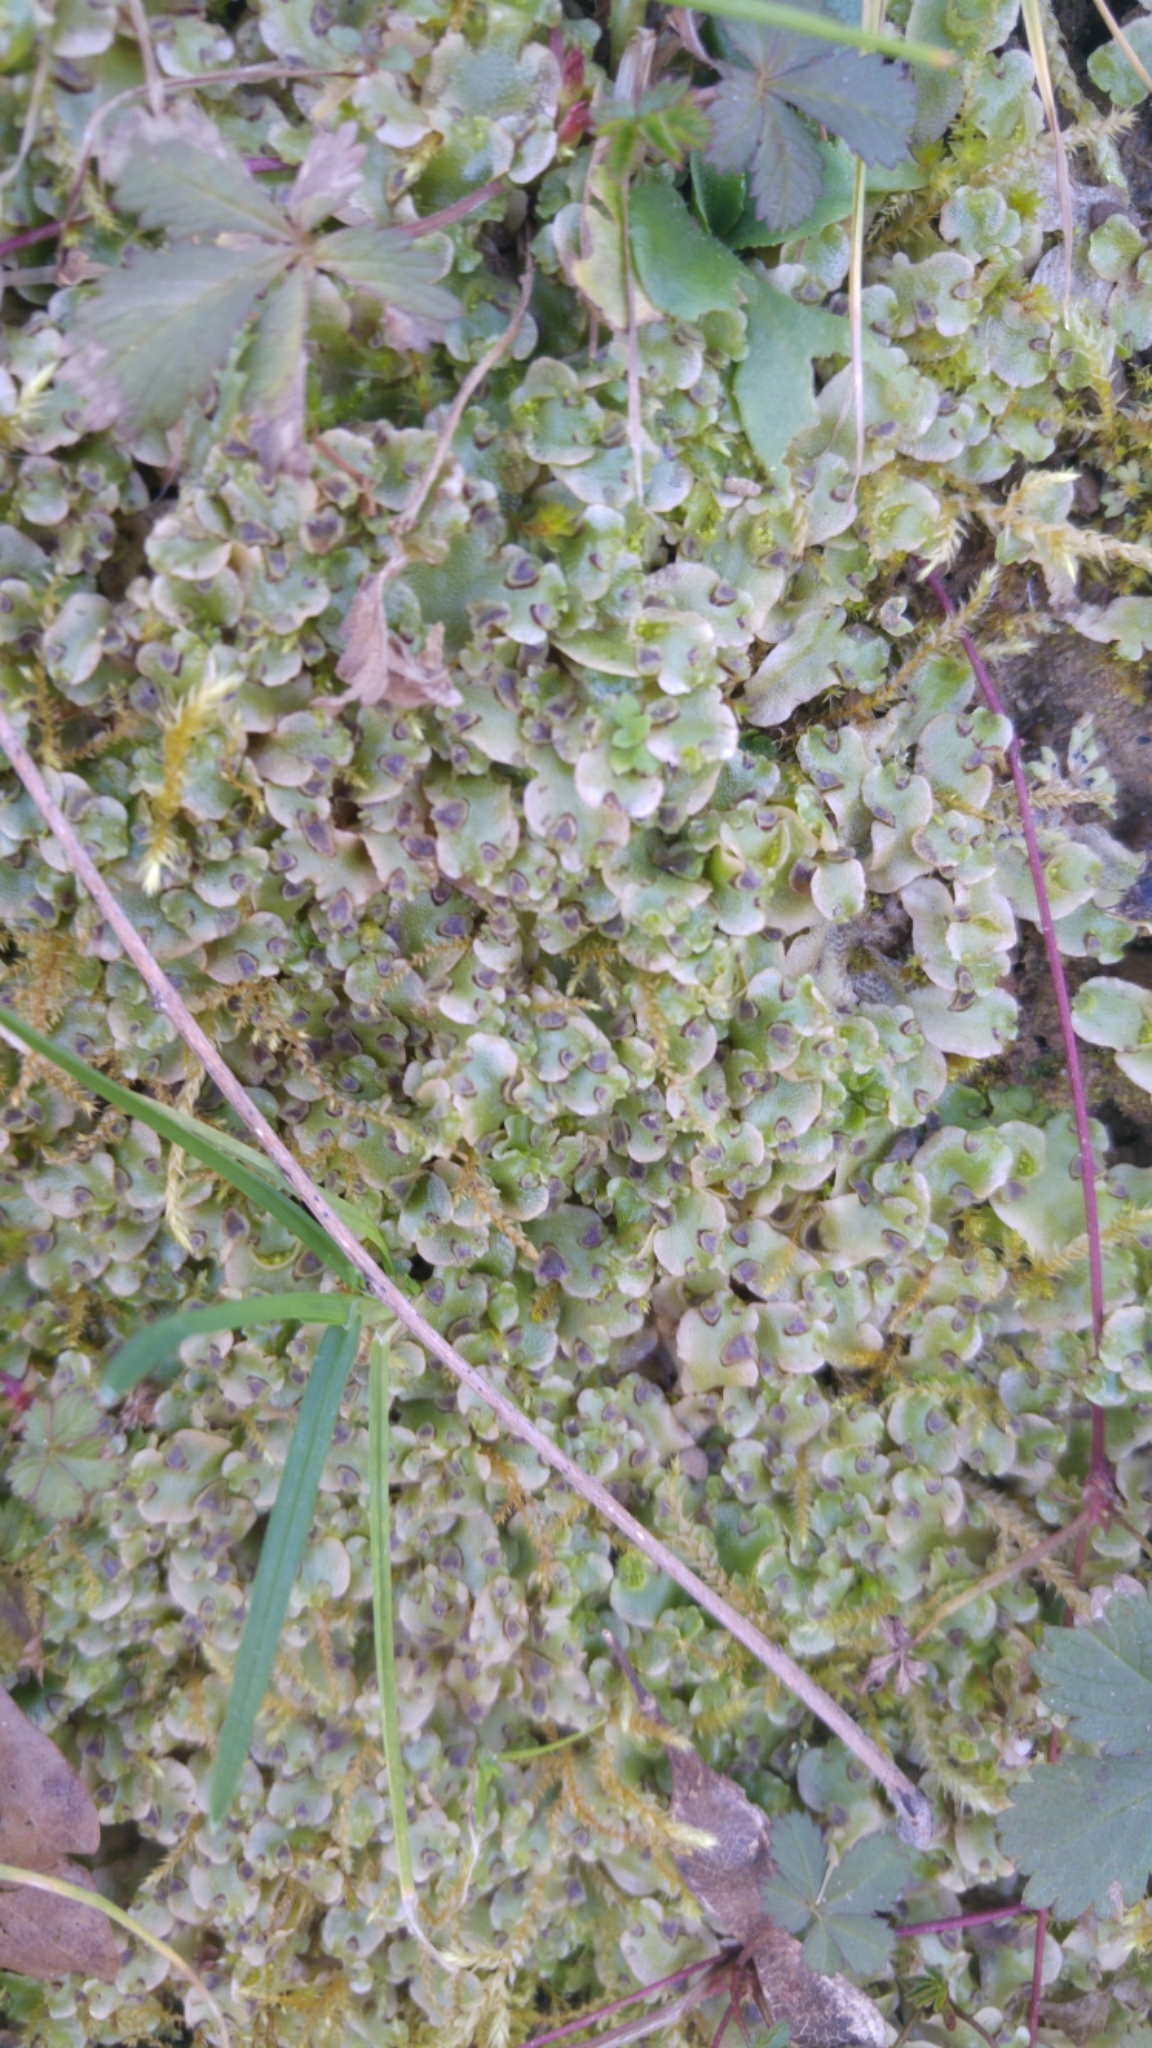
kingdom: Plantae
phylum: Marchantiophyta
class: Marchantiopsida
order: Lunulariales
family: Lunulariaceae
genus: Lunularia
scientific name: Lunularia cruciata
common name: Crescent-cup liverwort
